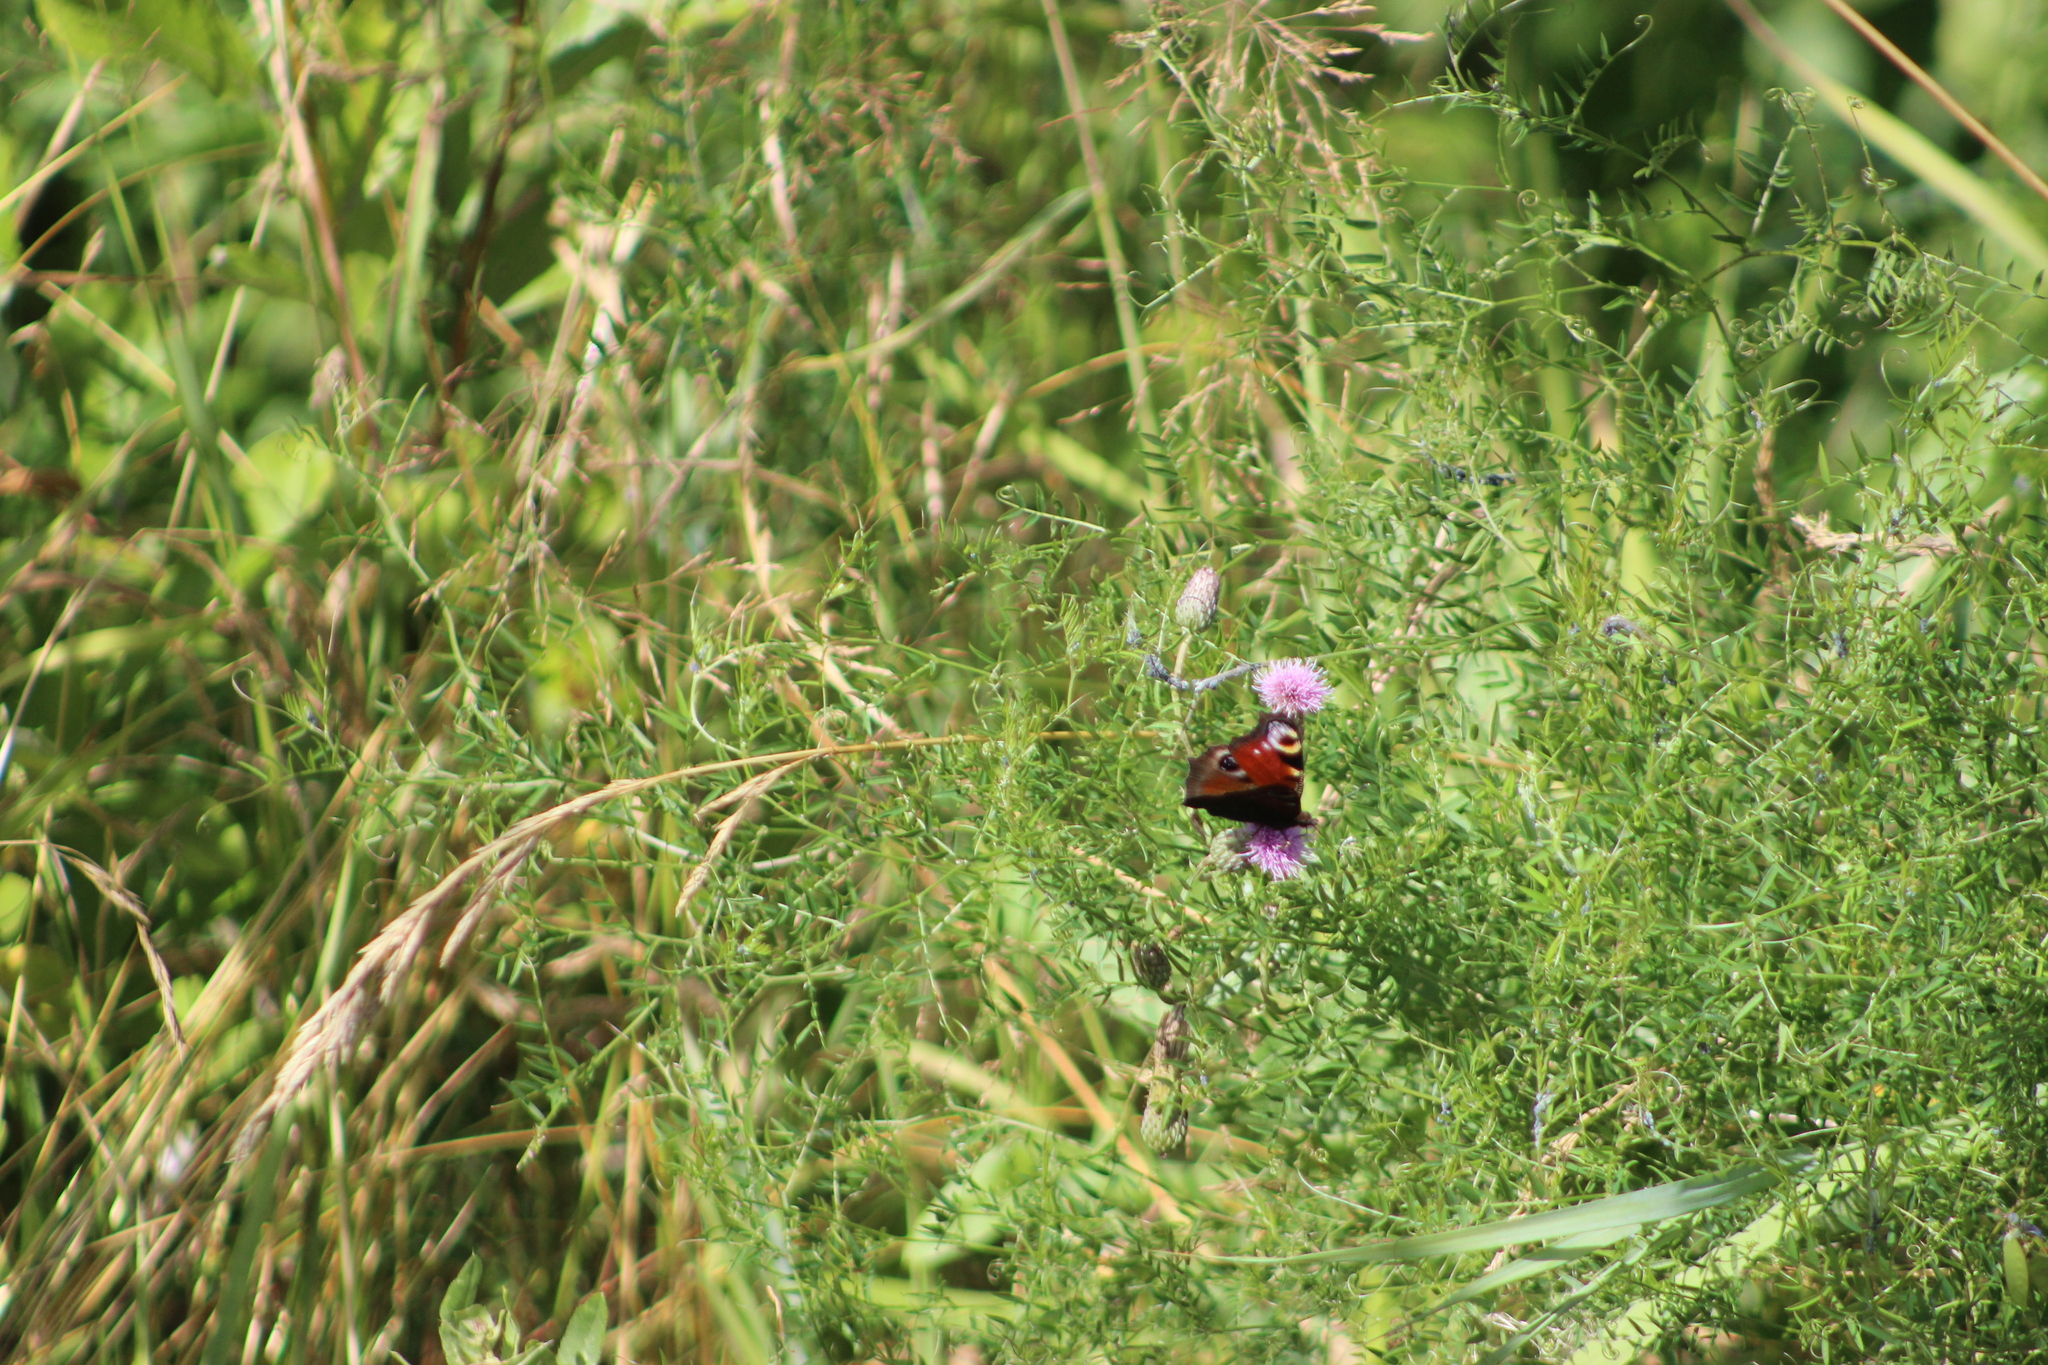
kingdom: Animalia
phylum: Arthropoda
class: Insecta
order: Lepidoptera
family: Nymphalidae
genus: Aglais
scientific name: Aglais io
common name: Peacock
